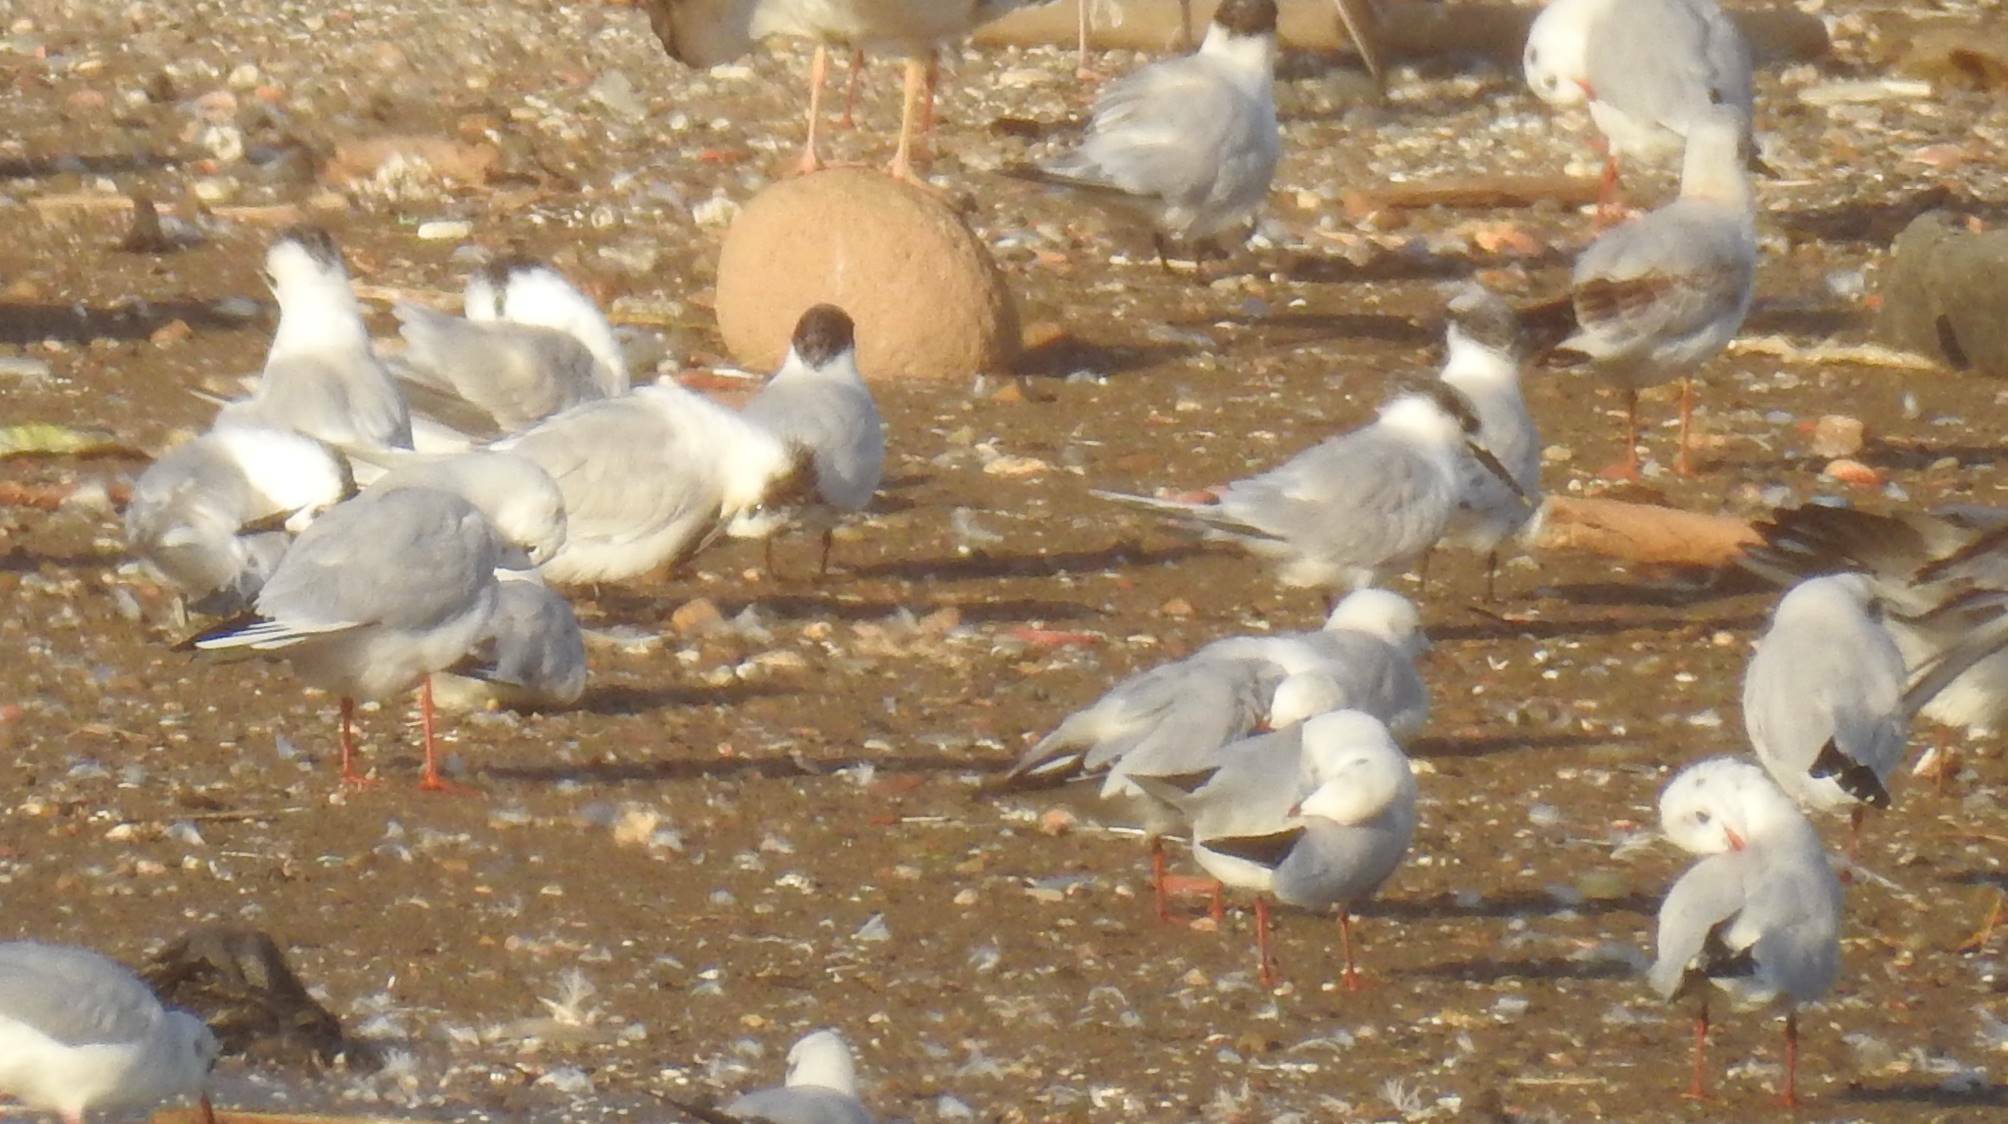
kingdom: Animalia
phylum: Chordata
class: Aves
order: Charadriiformes
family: Laridae
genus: Thalasseus
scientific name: Thalasseus sandvicensis
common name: Sandwich tern
